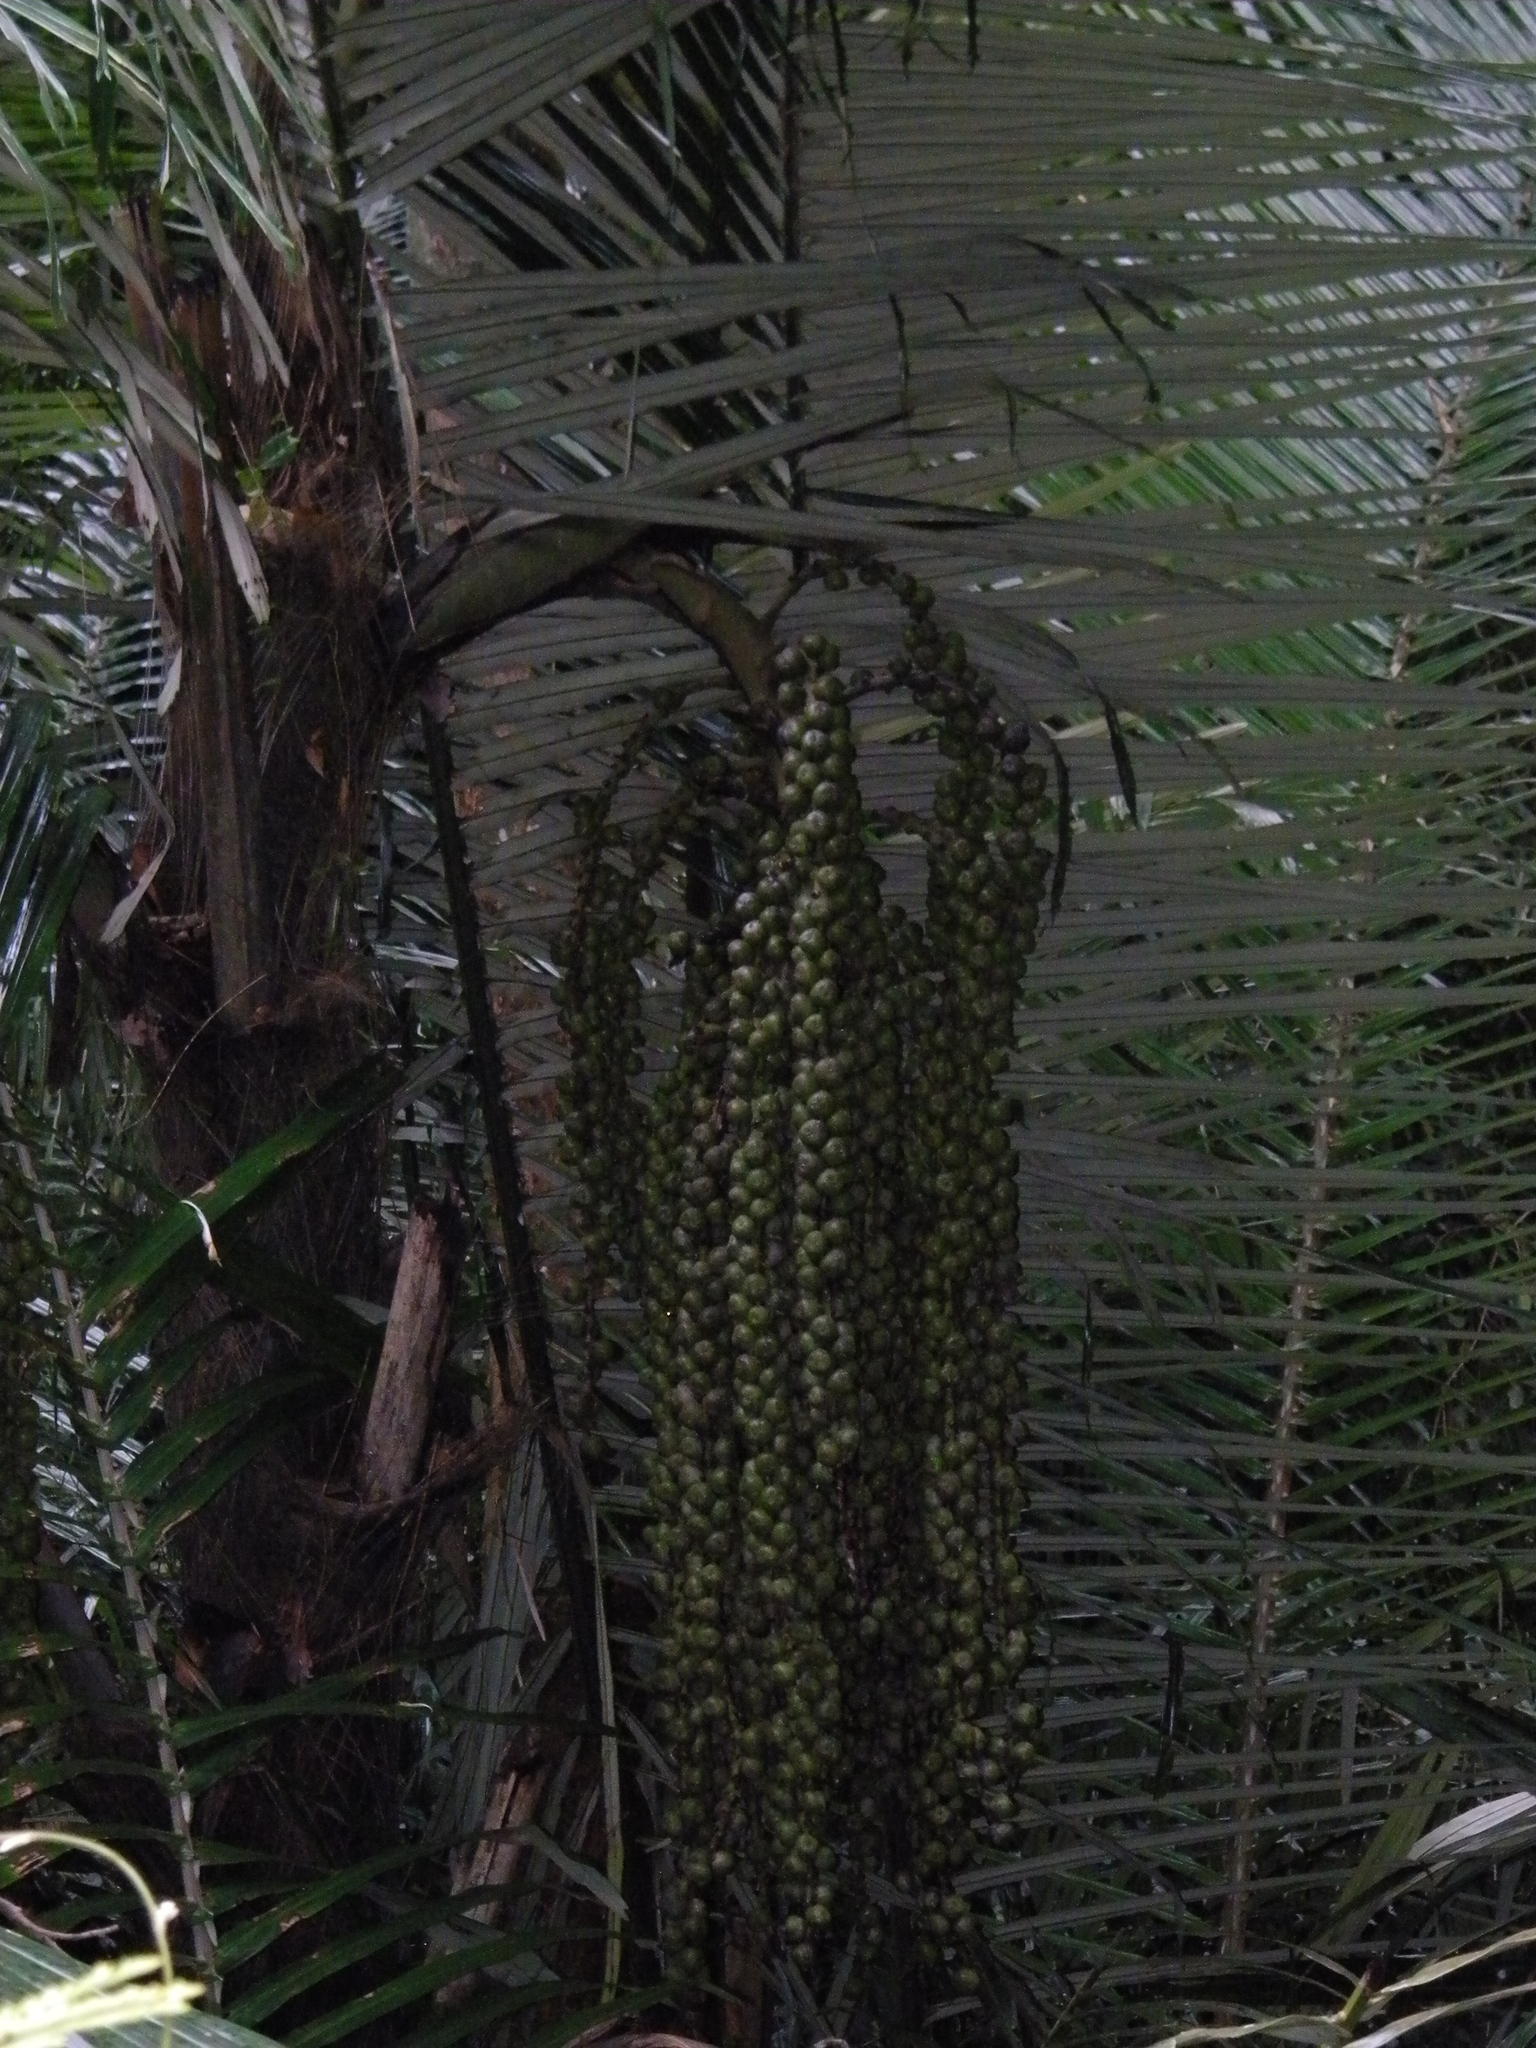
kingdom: Plantae
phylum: Tracheophyta
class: Liliopsida
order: Arecales
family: Arecaceae
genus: Arenga
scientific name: Arenga pinnata
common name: Black-fiber palm
